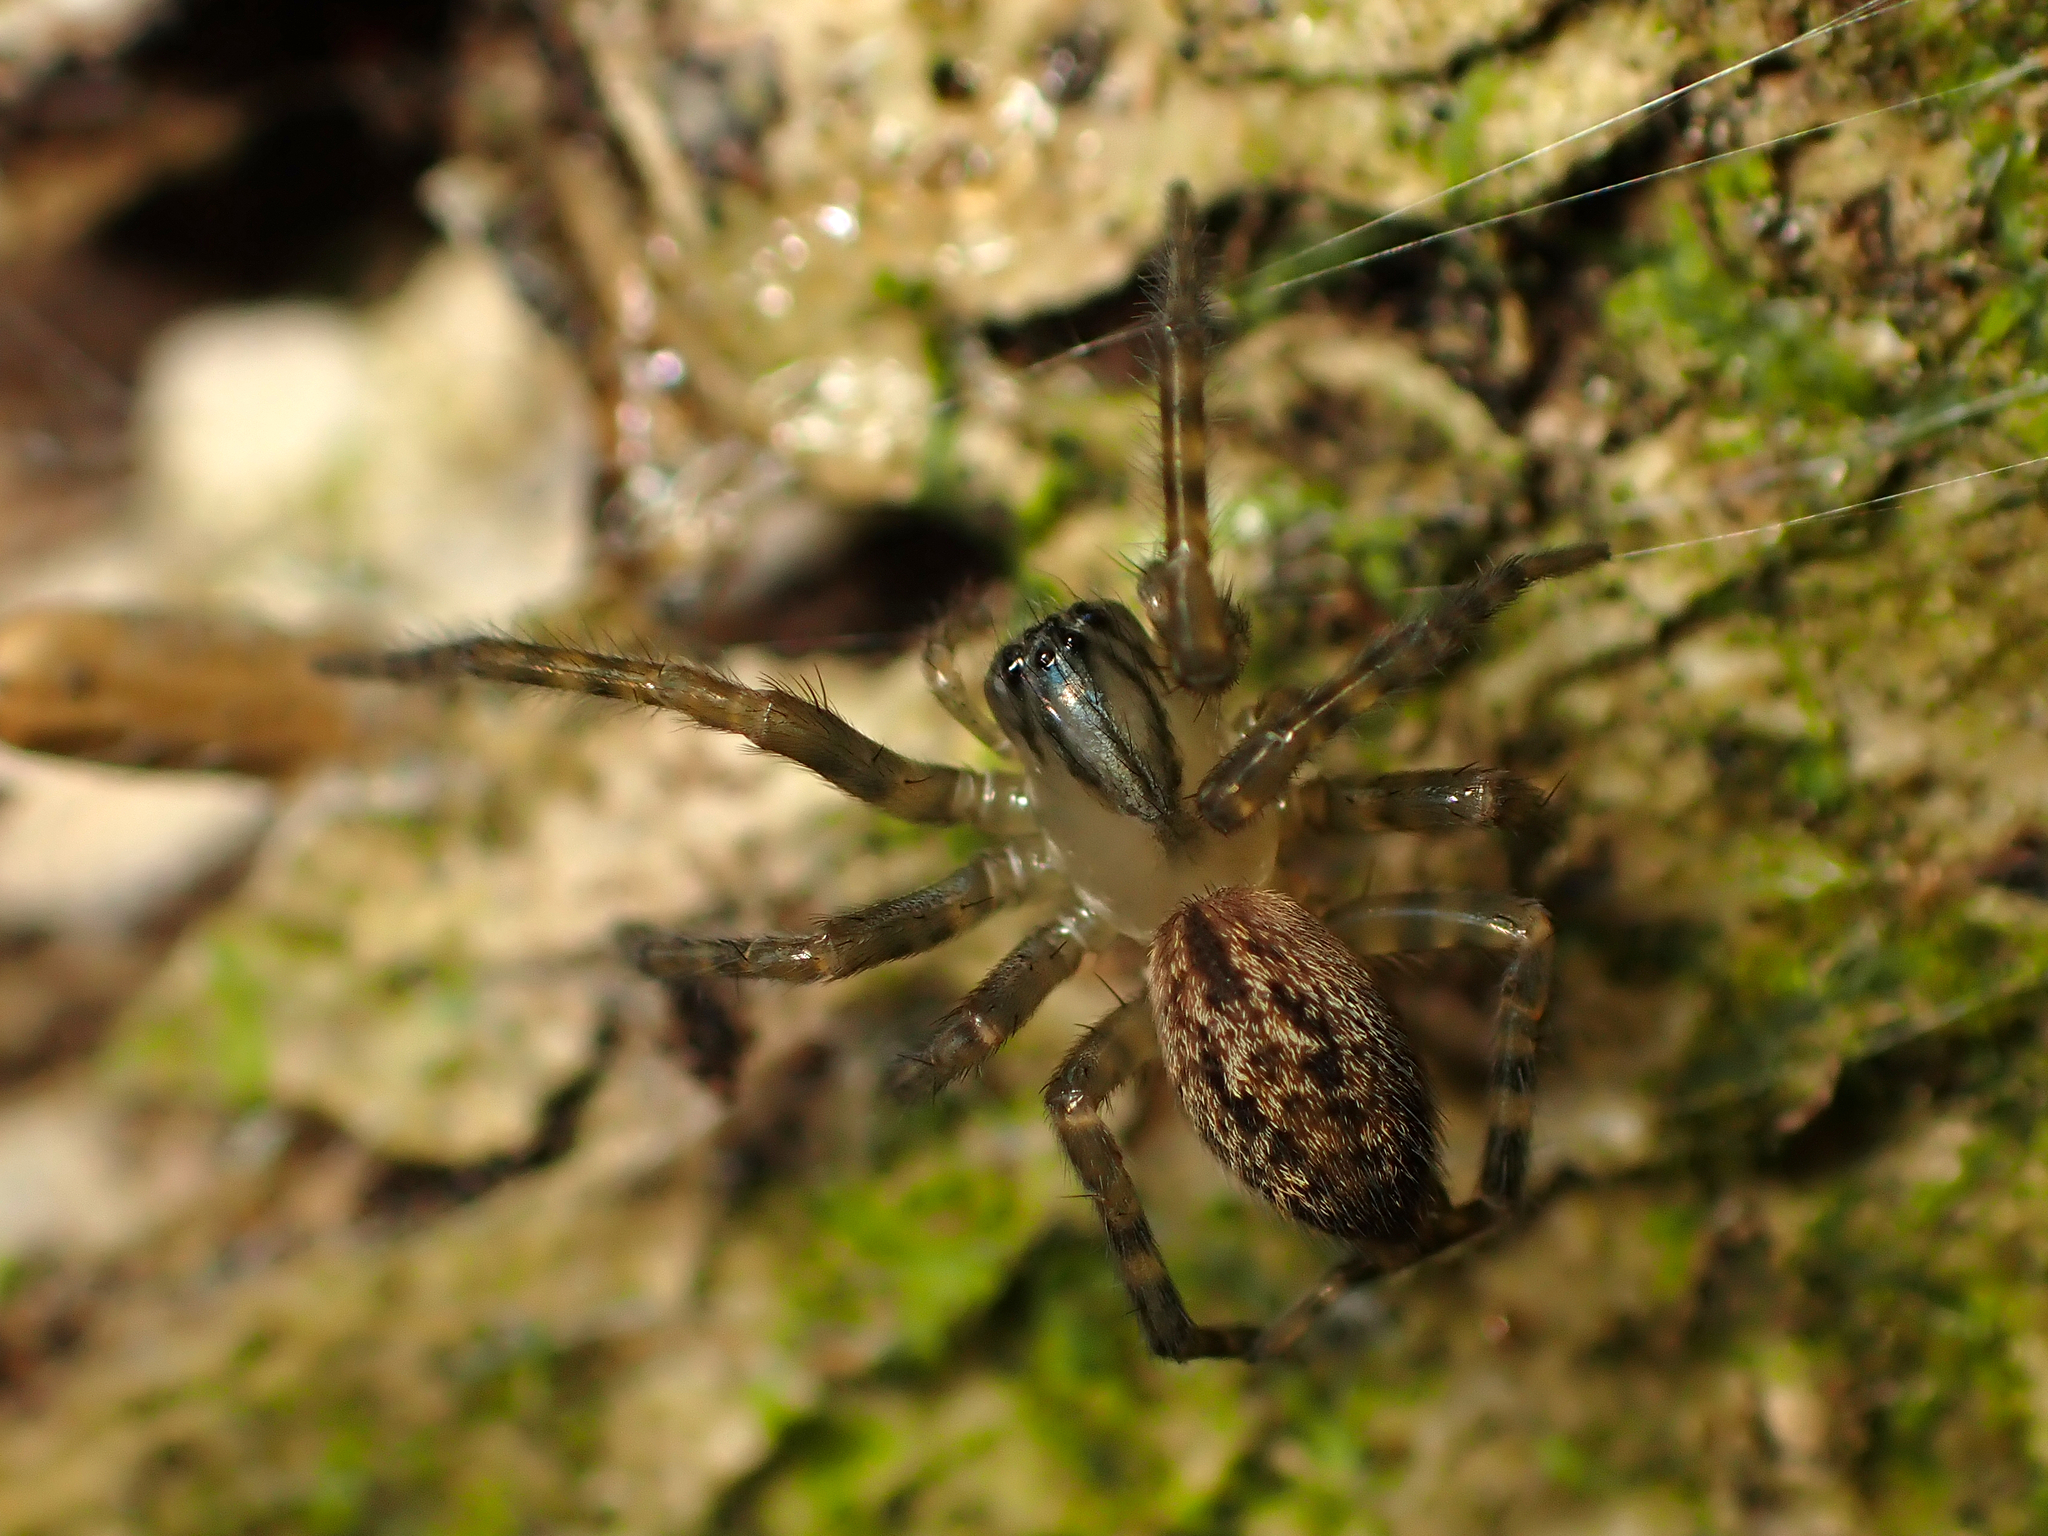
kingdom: Animalia
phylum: Arthropoda
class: Arachnida
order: Araneae
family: Desidae
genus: Nuisiana
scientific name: Nuisiana arboris
